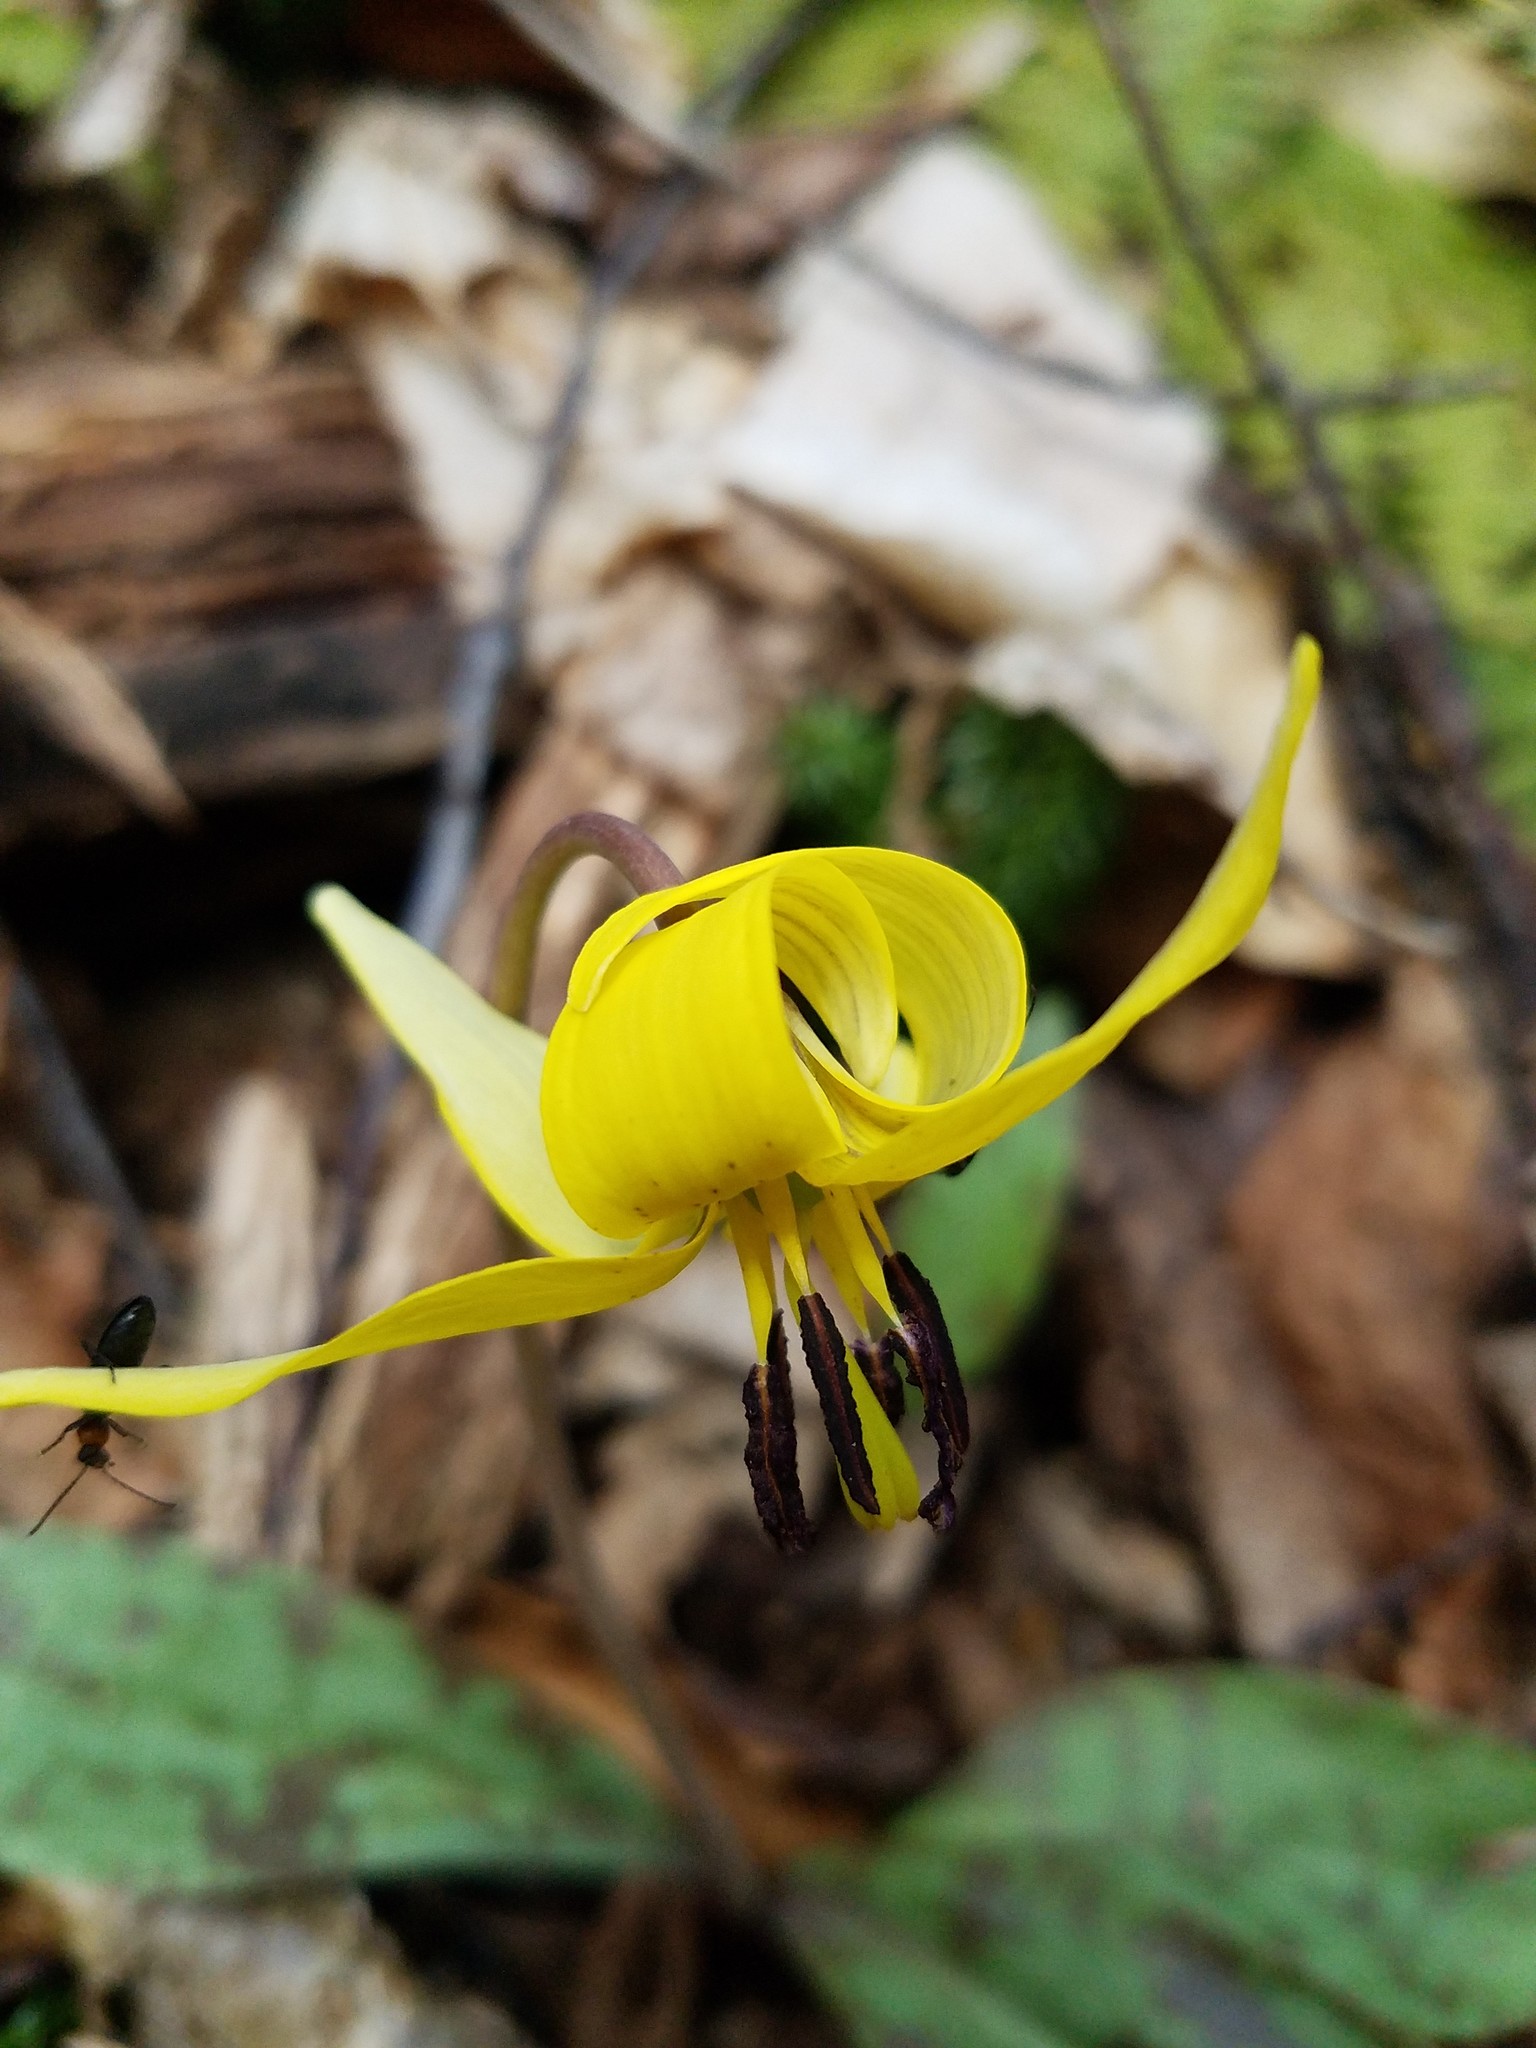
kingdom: Plantae
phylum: Tracheophyta
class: Liliopsida
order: Liliales
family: Liliaceae
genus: Erythronium
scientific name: Erythronium americanum
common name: Yellow adder's-tongue
